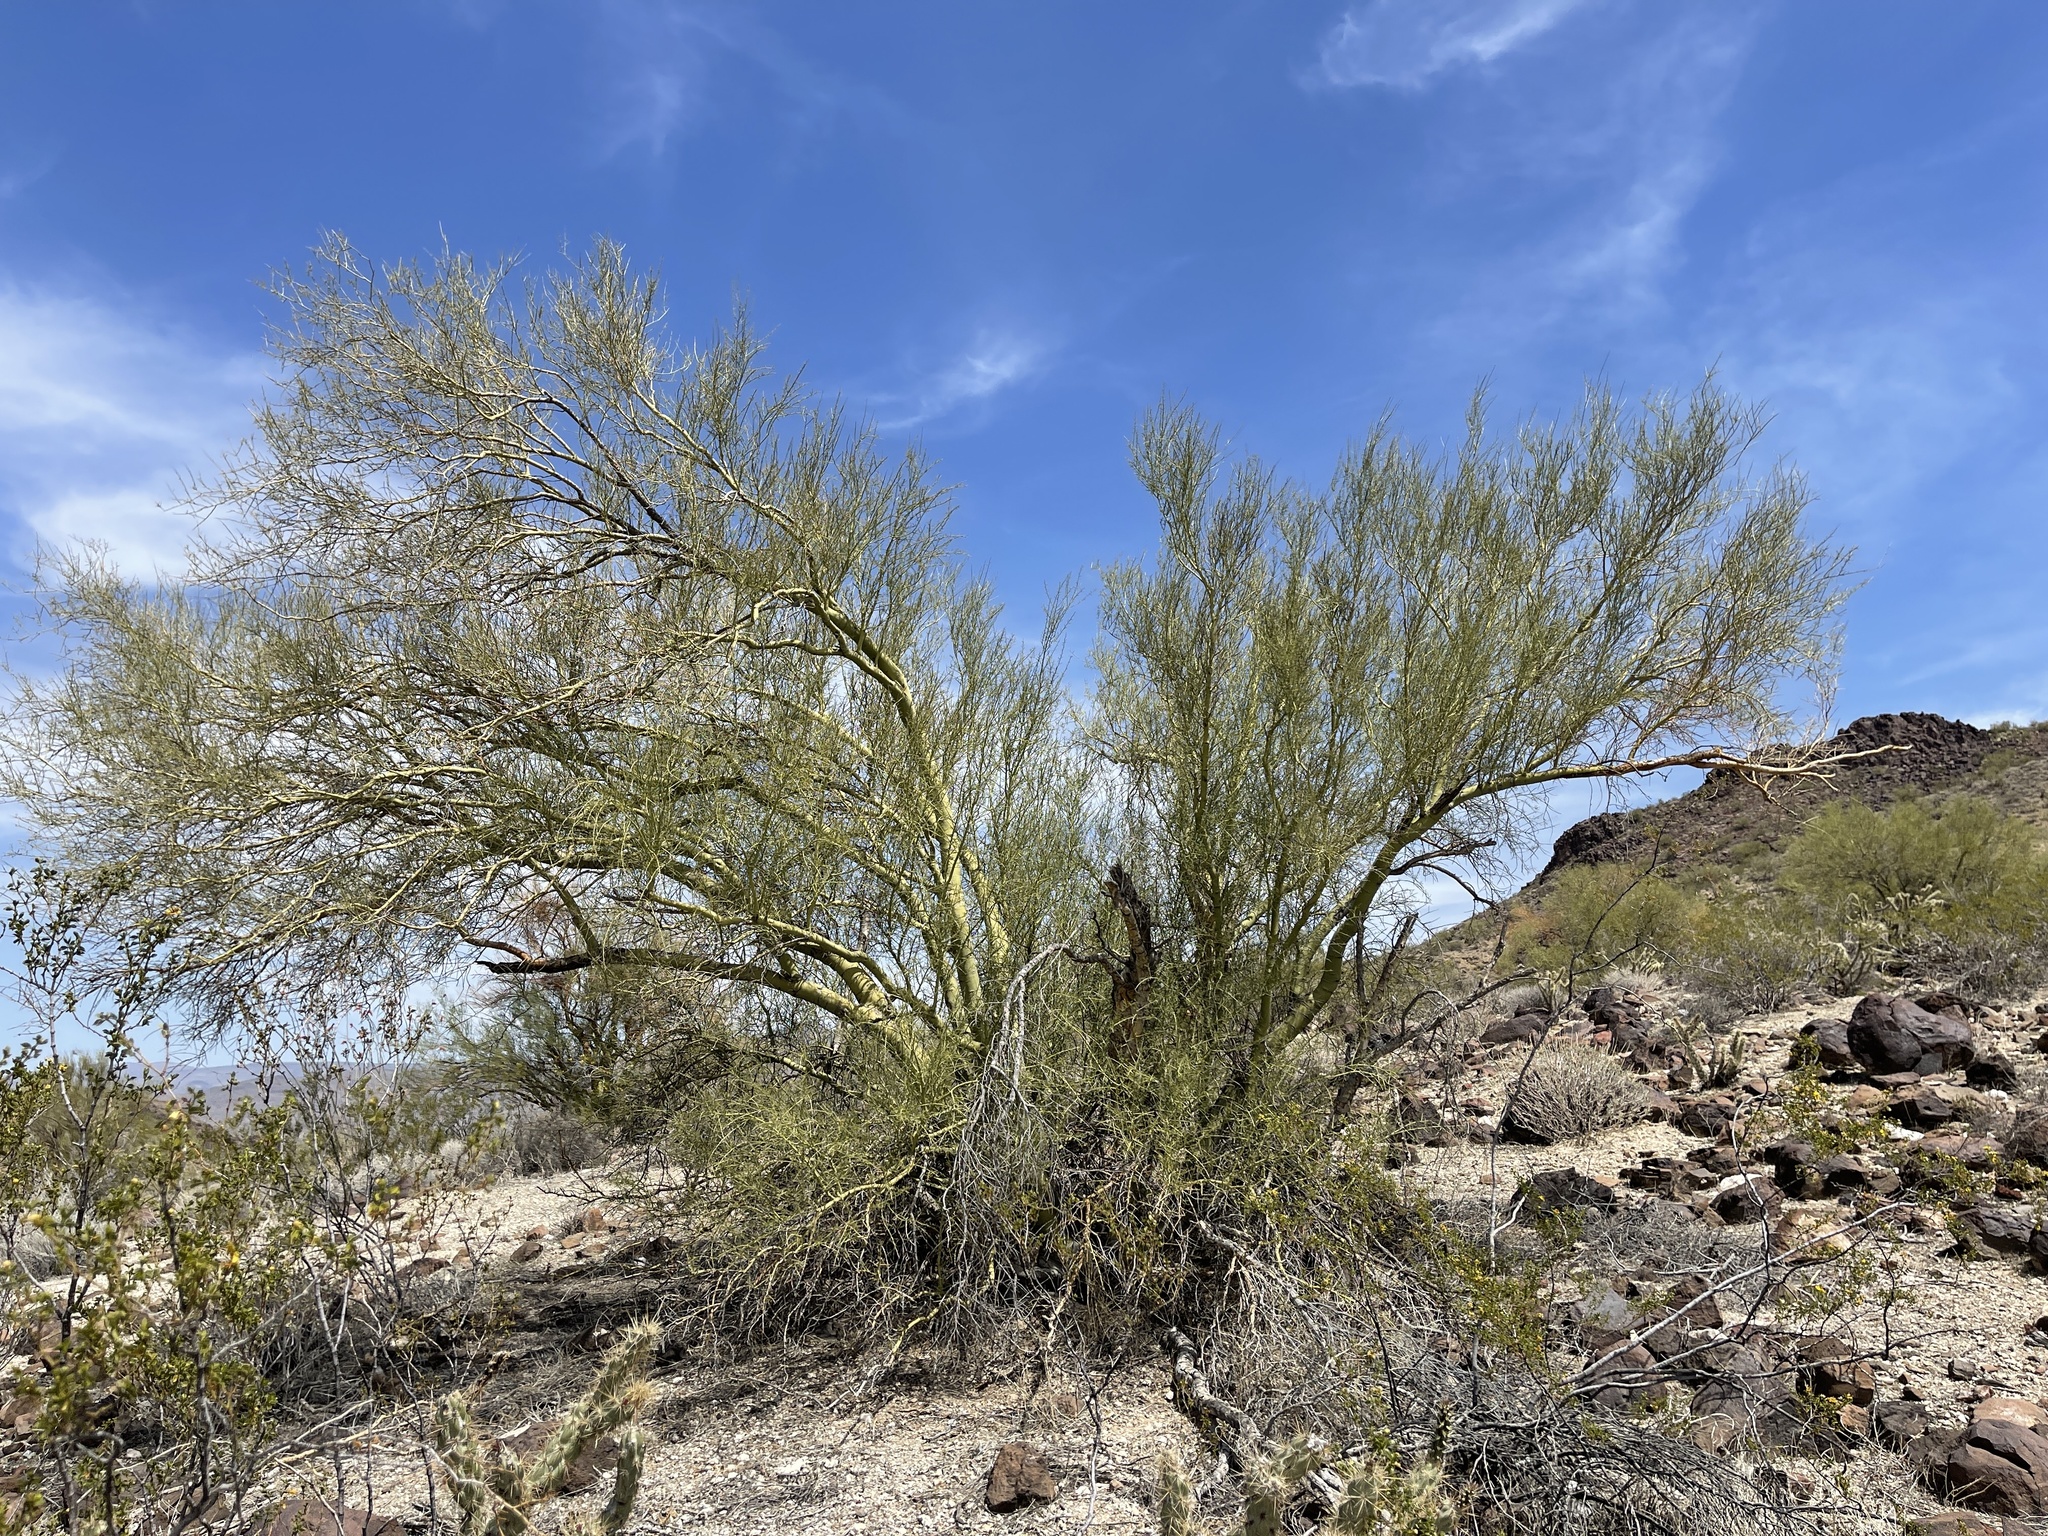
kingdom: Plantae
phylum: Tracheophyta
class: Magnoliopsida
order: Fabales
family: Fabaceae
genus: Parkinsonia
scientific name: Parkinsonia microphylla
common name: Yellow paloverde
